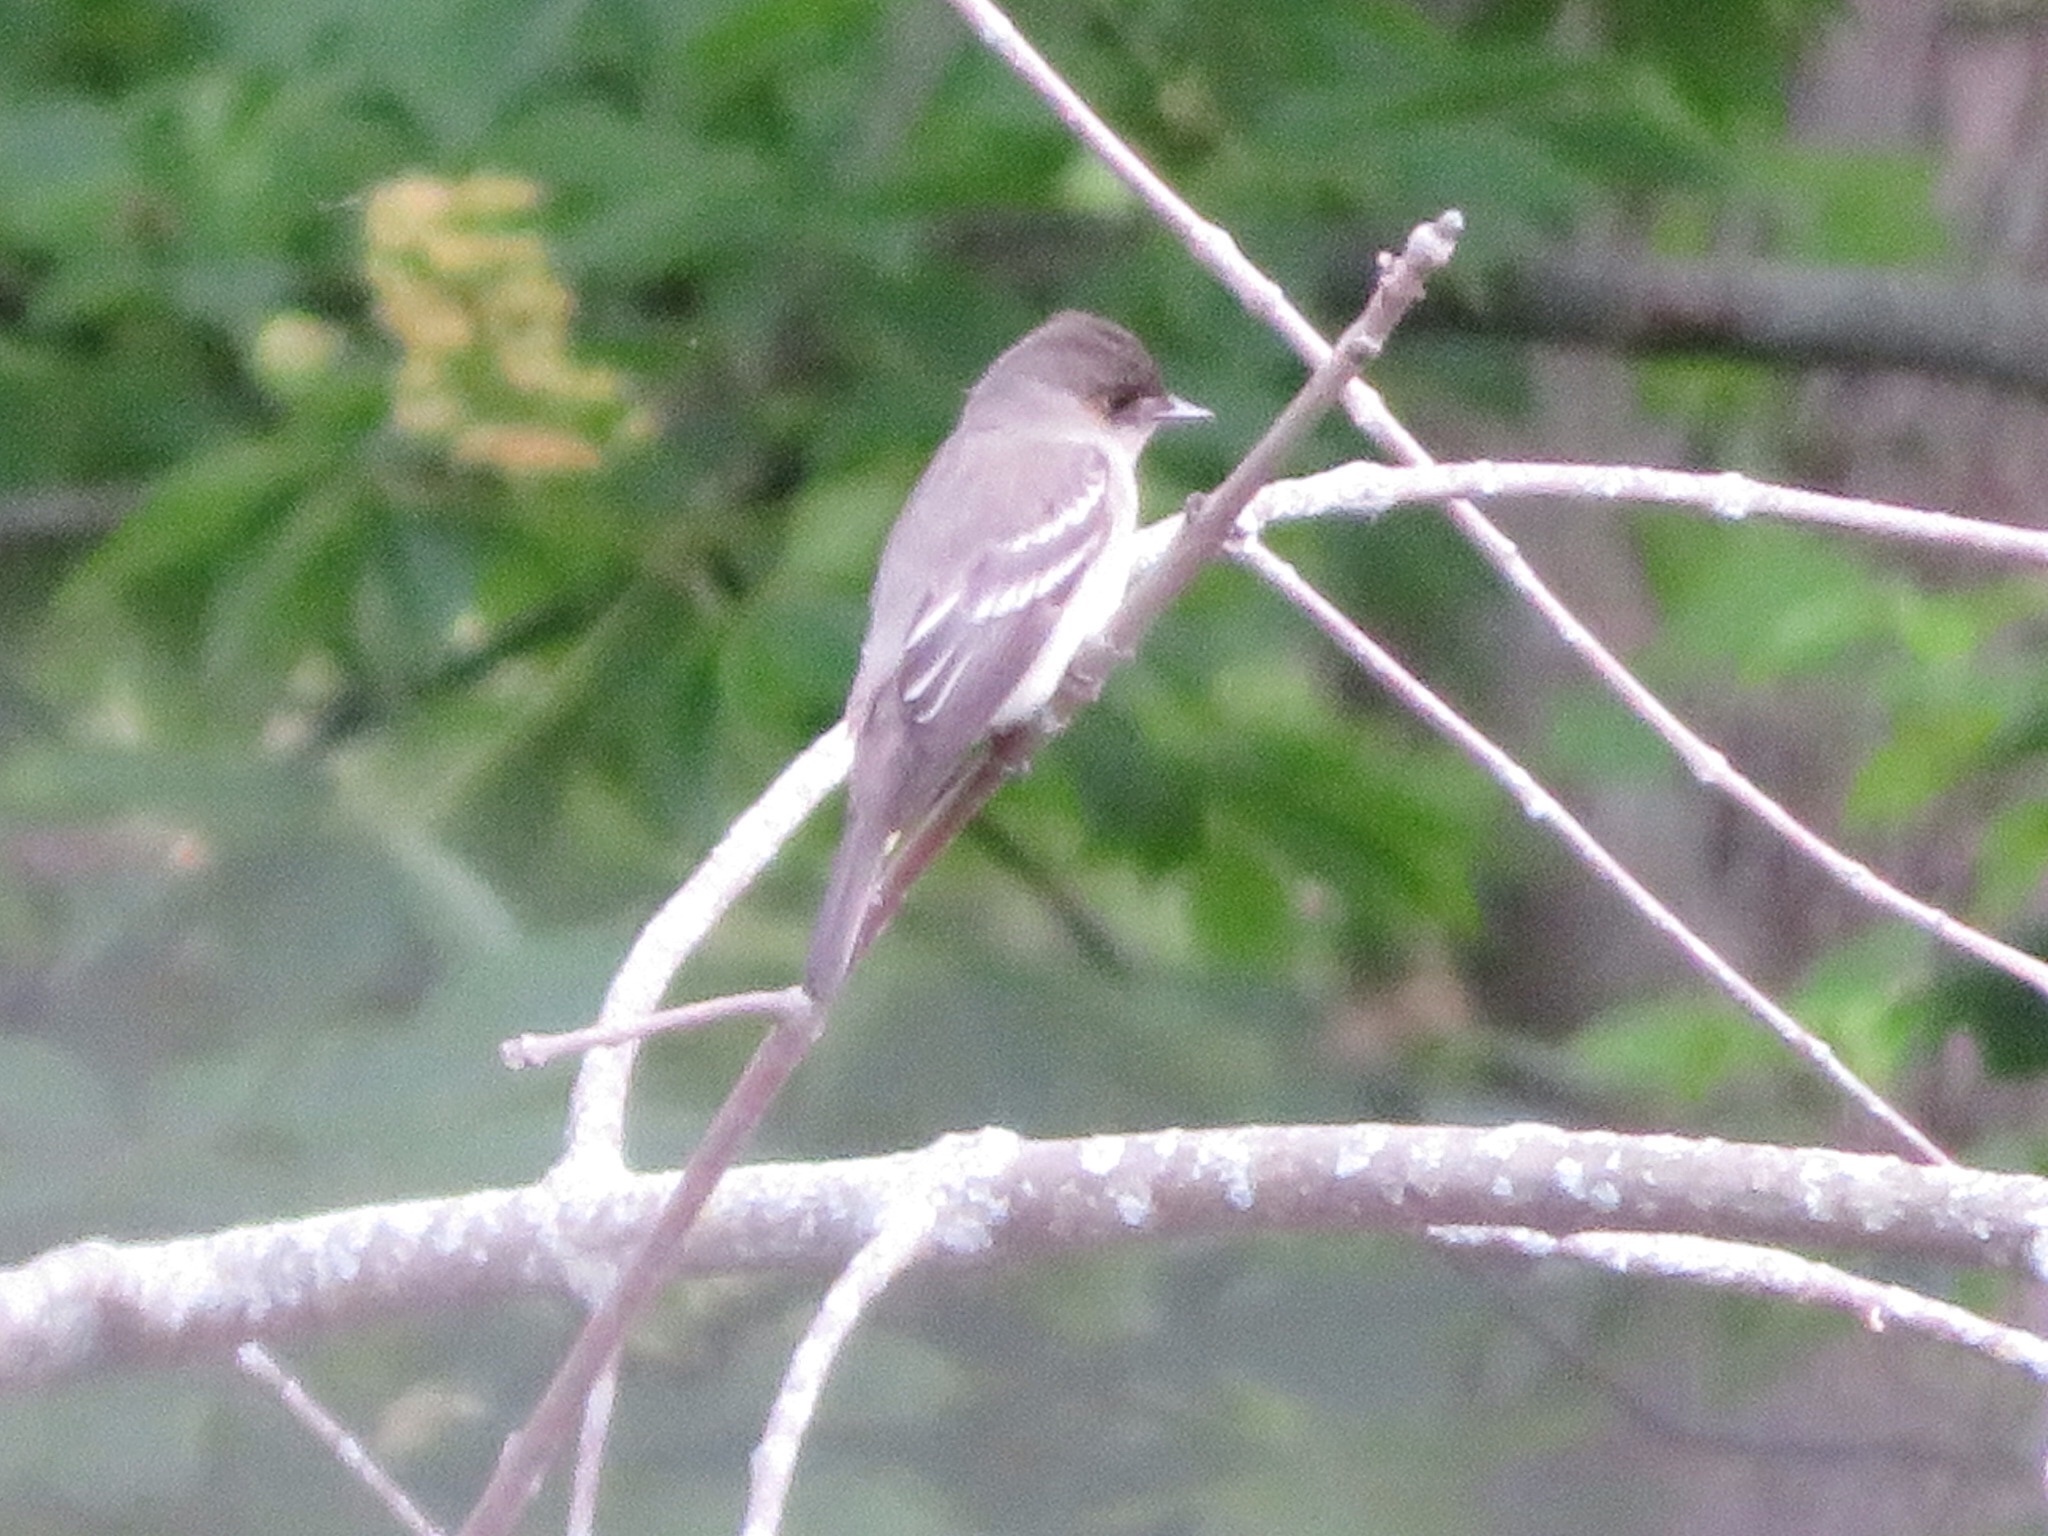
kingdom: Animalia
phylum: Chordata
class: Aves
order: Passeriformes
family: Tyrannidae
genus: Contopus
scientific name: Contopus virens
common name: Eastern wood-pewee
